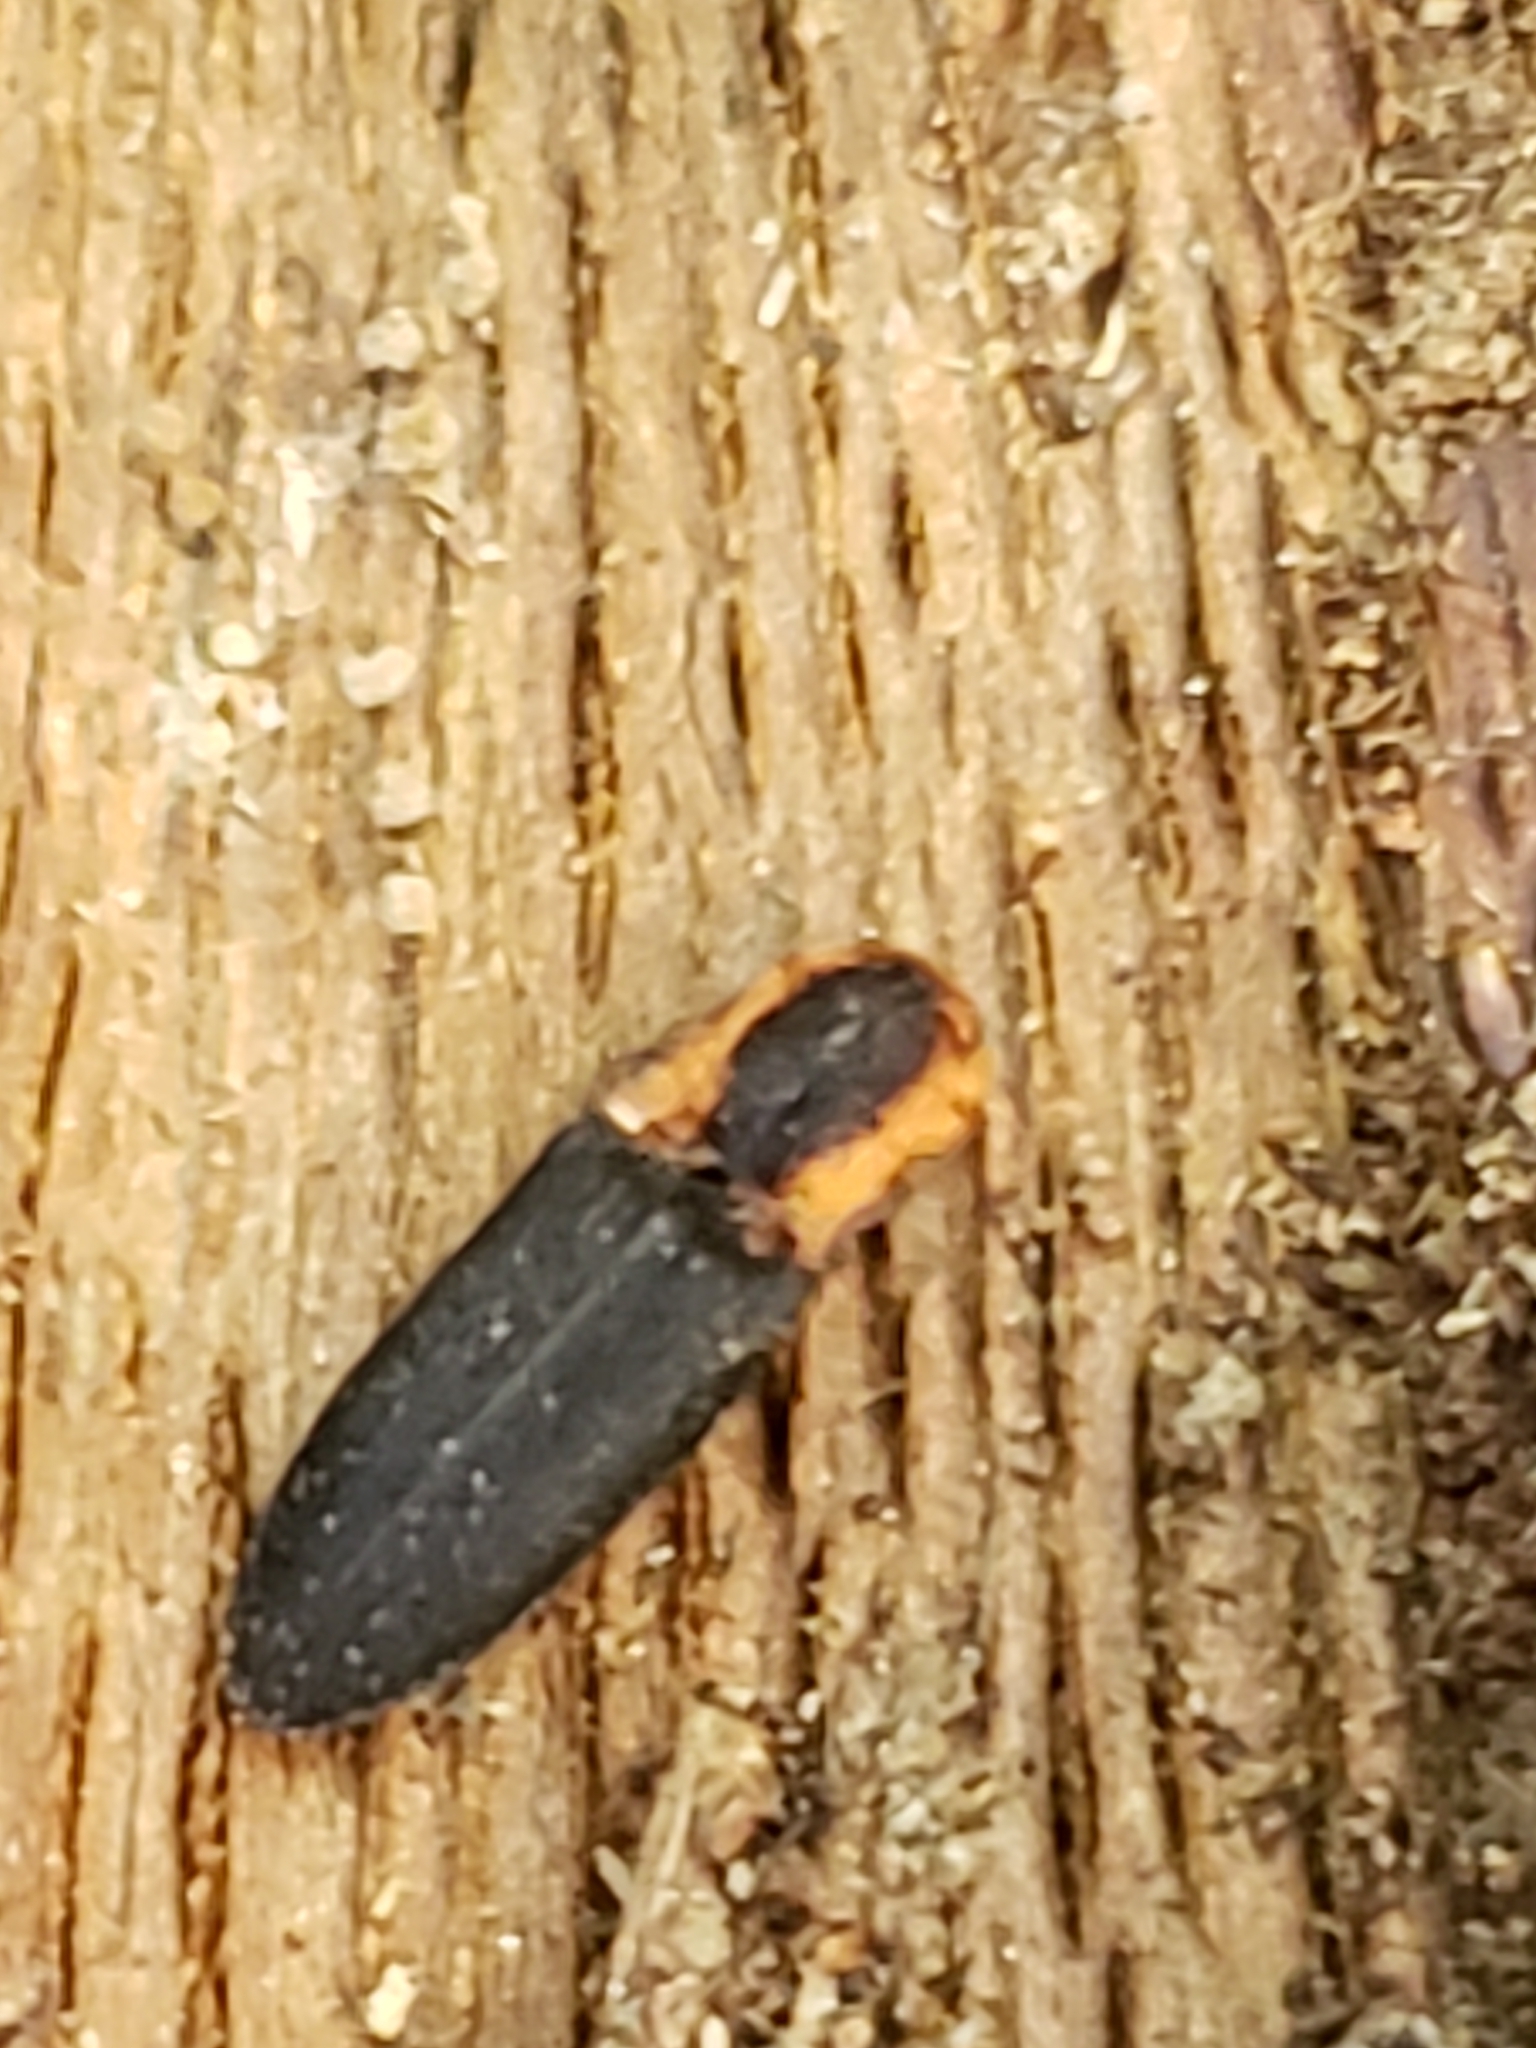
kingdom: Animalia
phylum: Arthropoda
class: Insecta
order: Coleoptera
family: Elateridae
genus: Lacon
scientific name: Lacon discoideus
